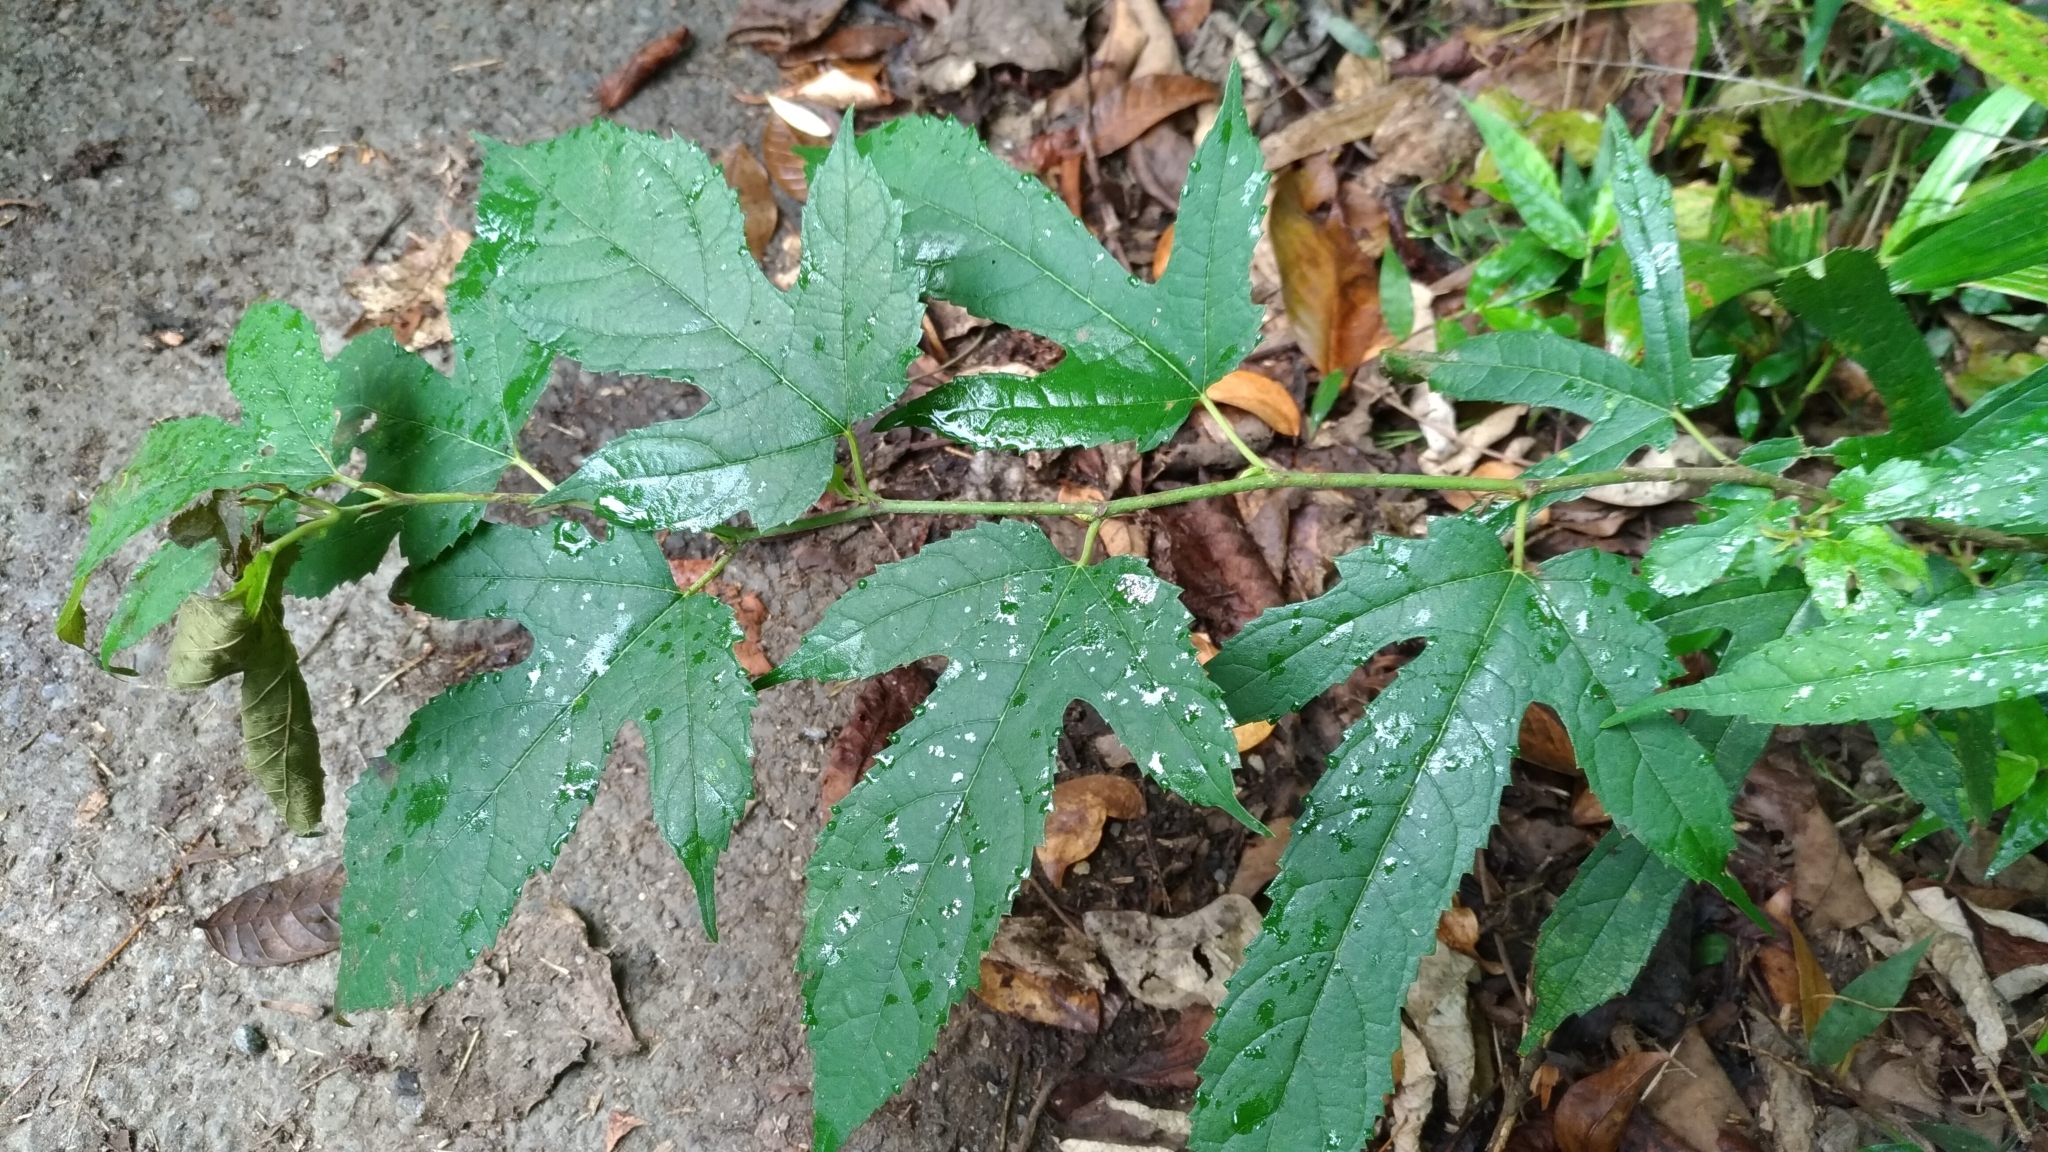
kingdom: Plantae
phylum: Tracheophyta
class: Magnoliopsida
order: Rosales
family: Moraceae
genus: Morus
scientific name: Morus indica
